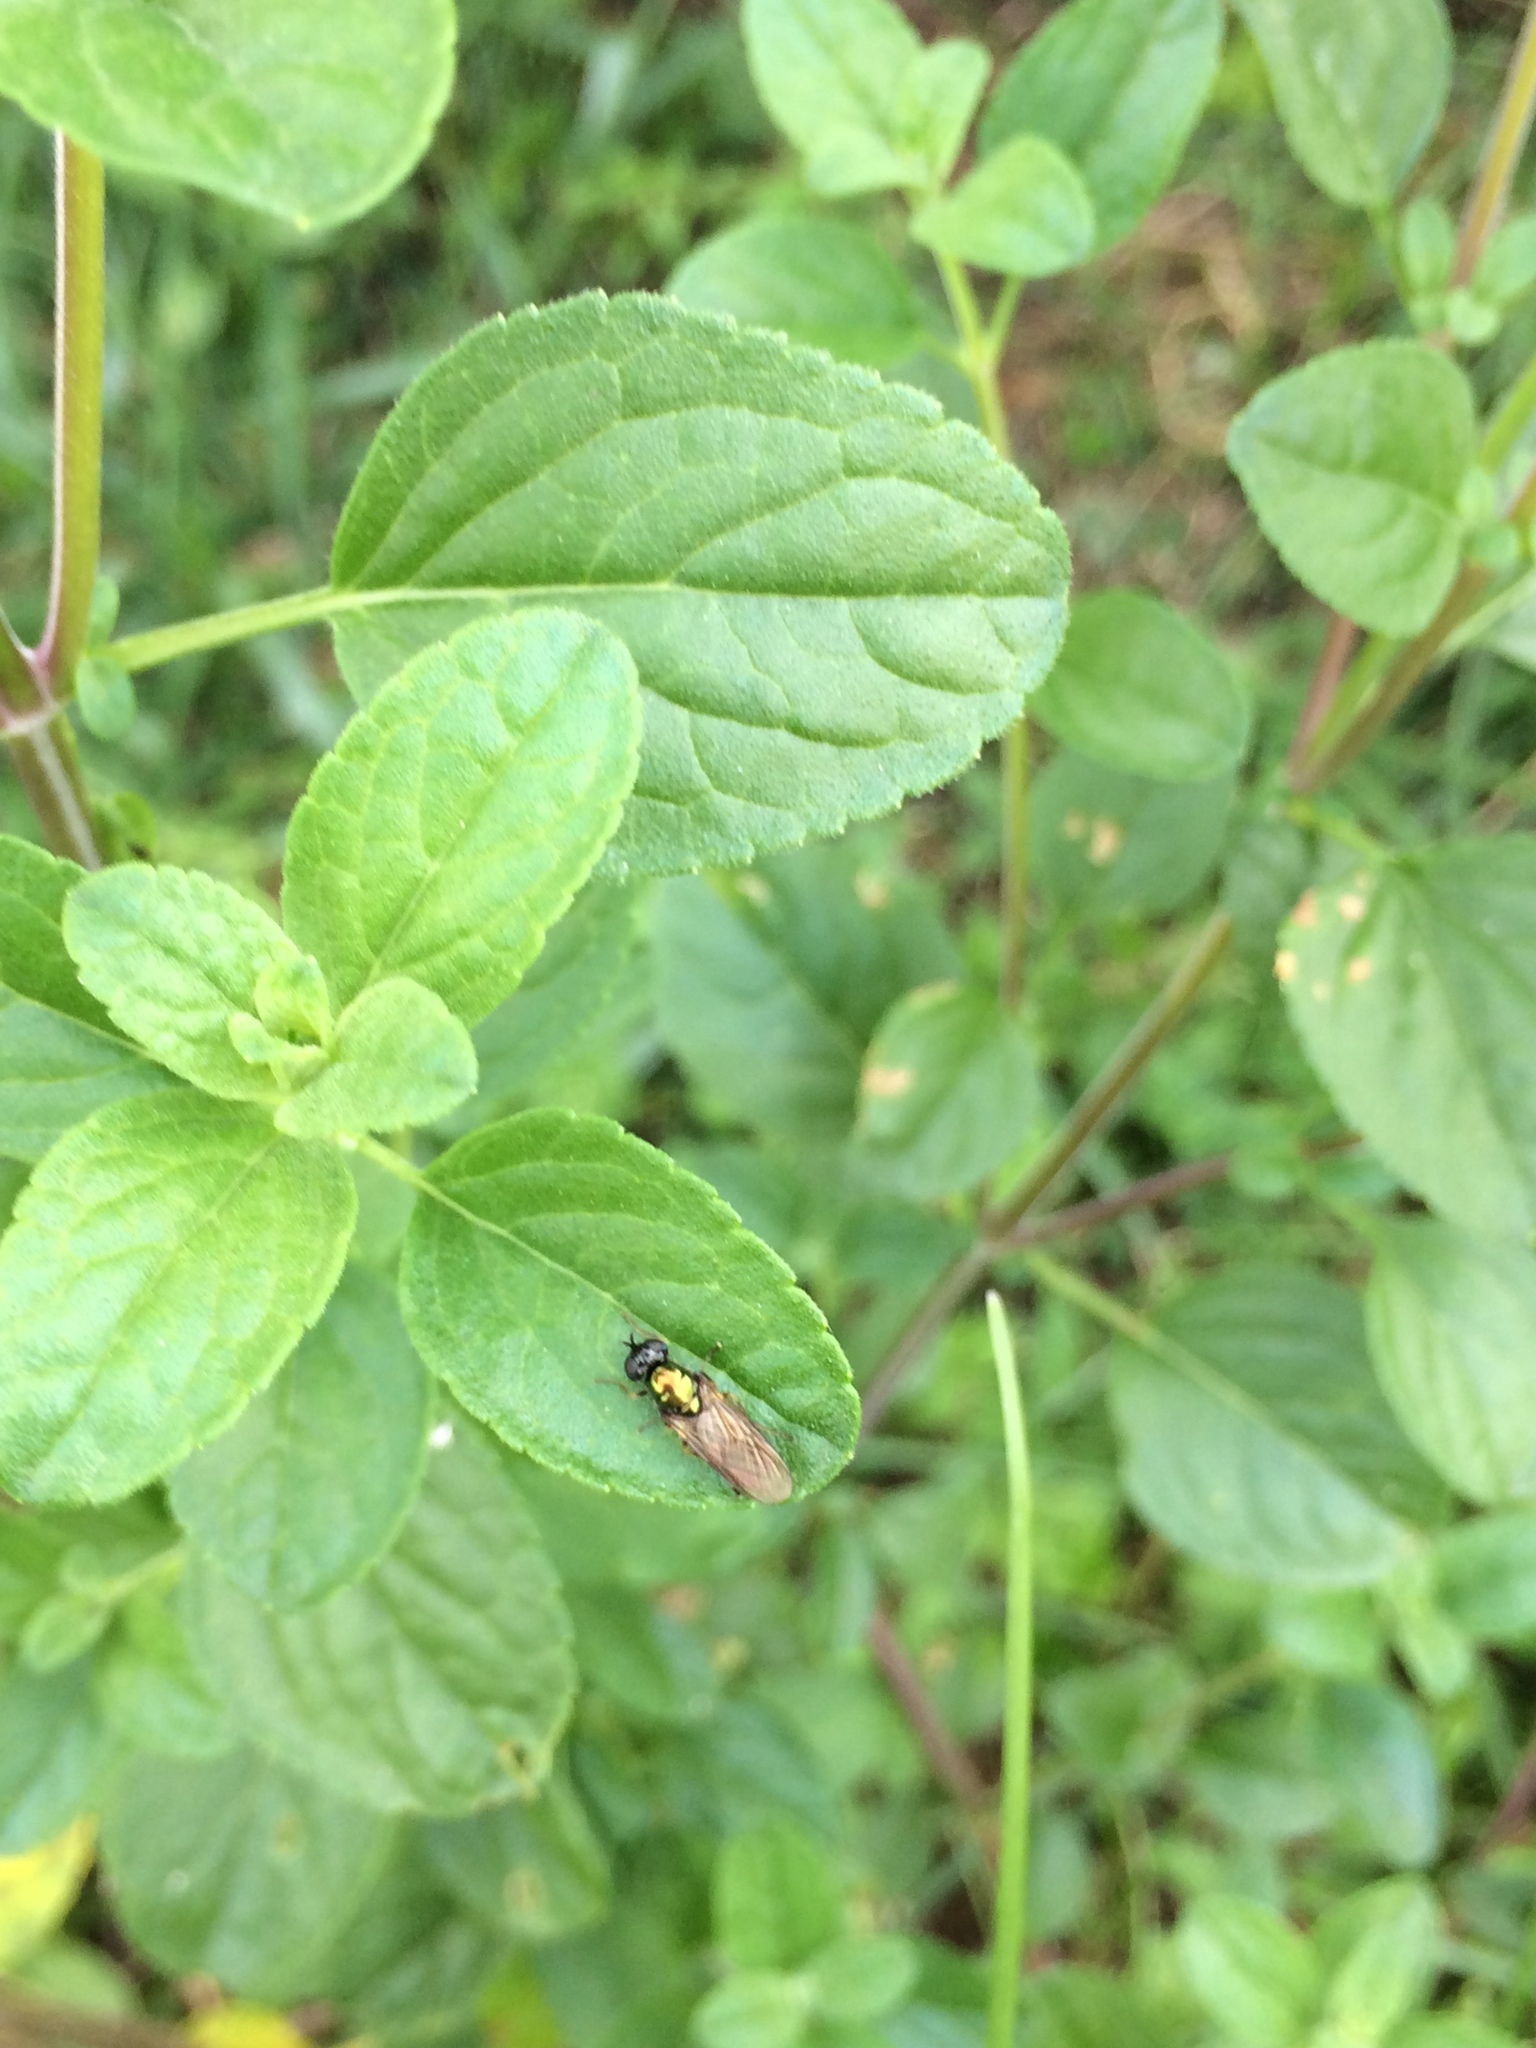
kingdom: Animalia
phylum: Arthropoda
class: Insecta
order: Diptera
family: Stratiomyidae
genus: Chloromyia
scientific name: Chloromyia formosa
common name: Soldier fly
